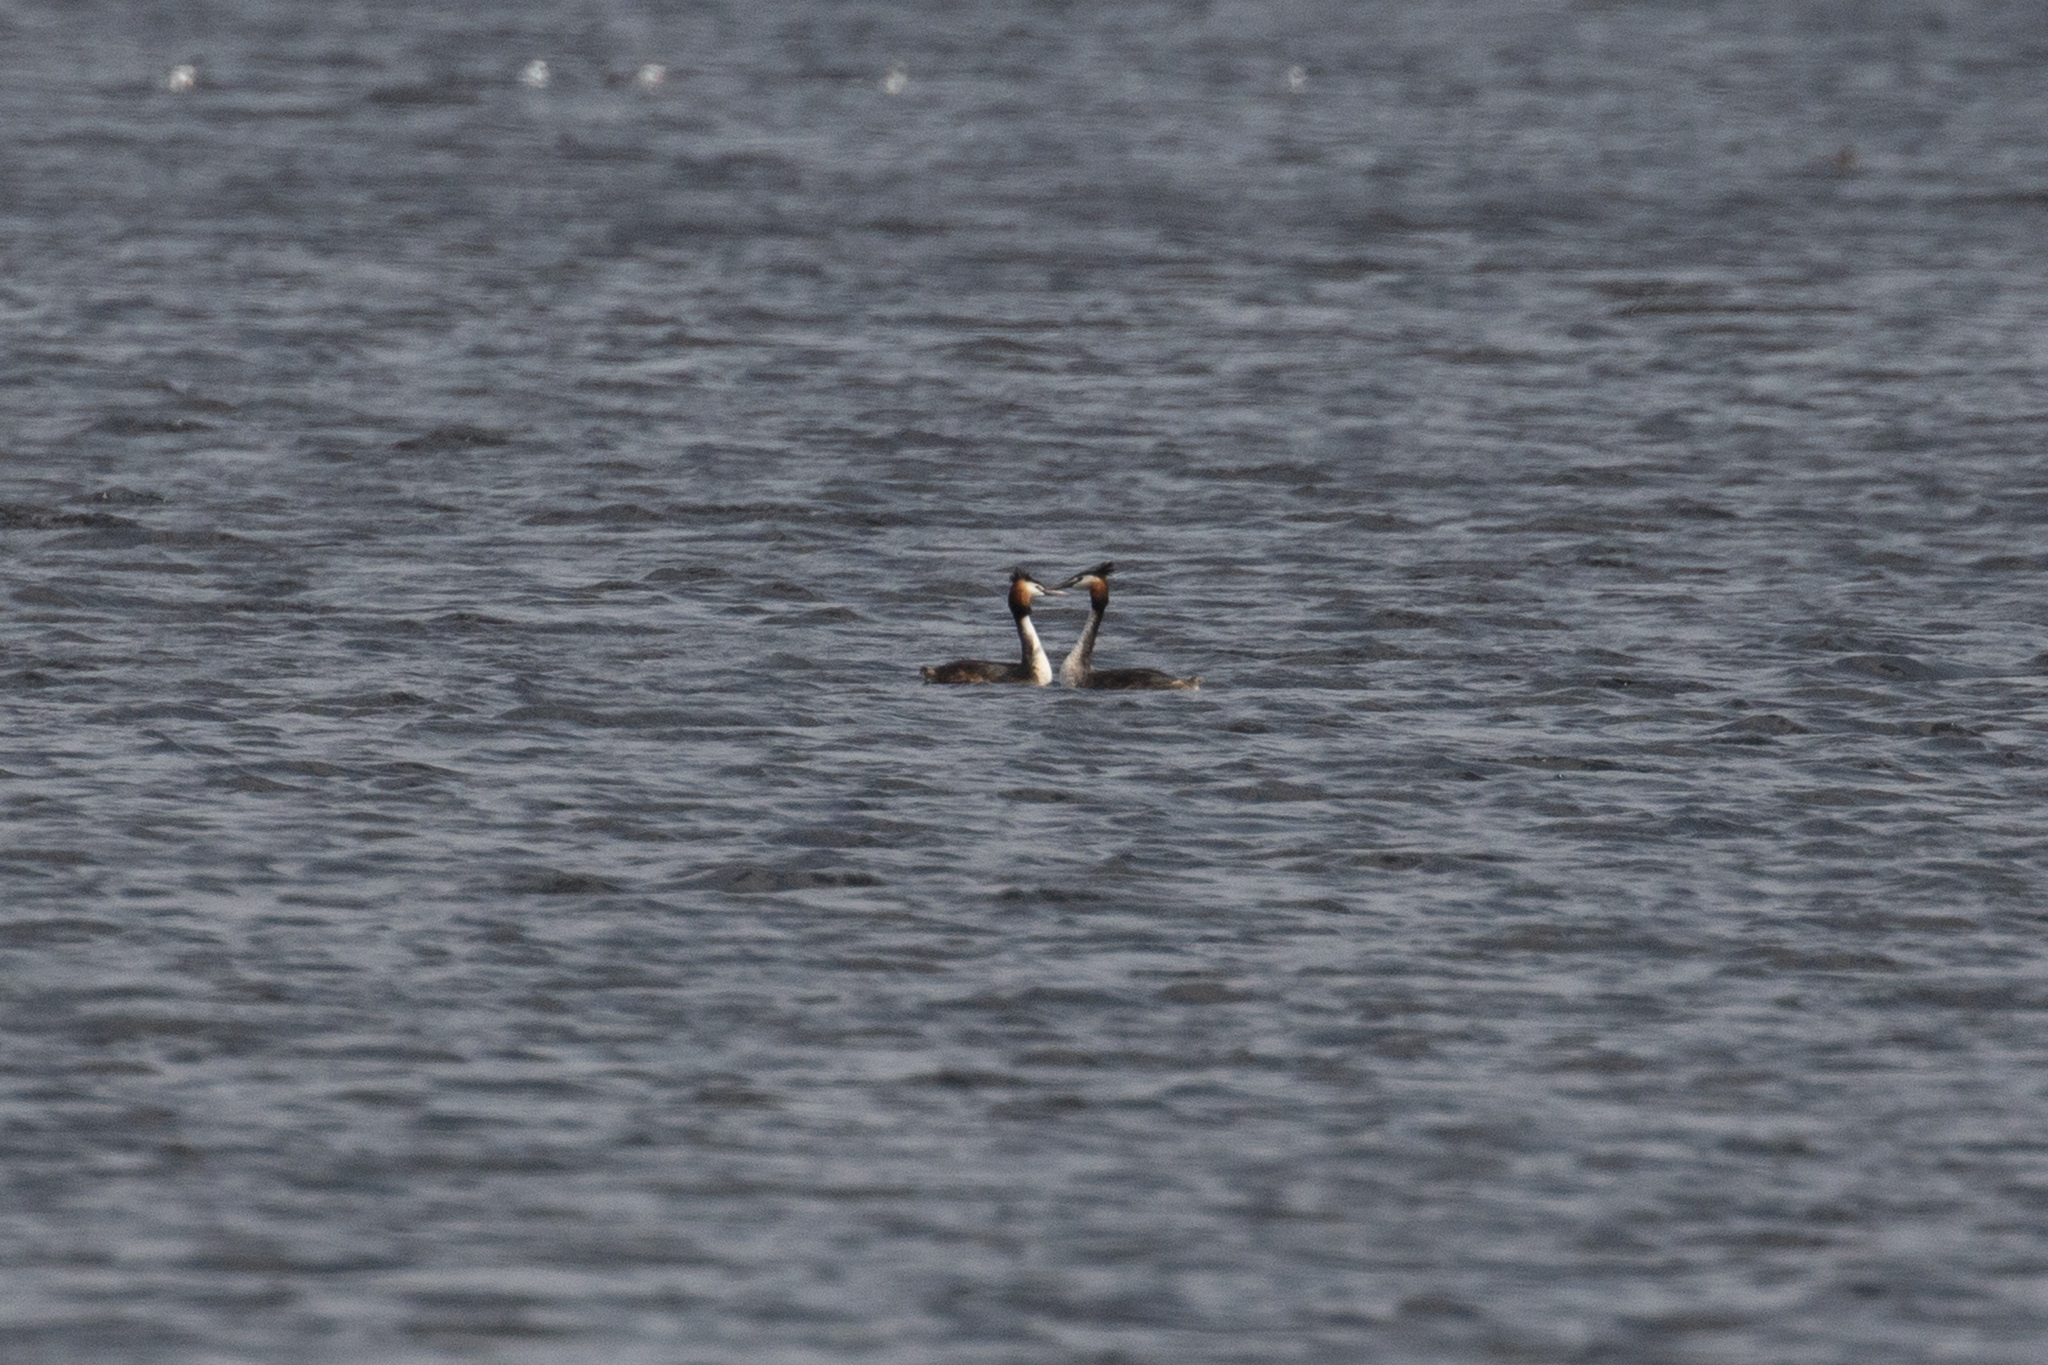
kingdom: Animalia
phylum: Chordata
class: Aves
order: Podicipediformes
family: Podicipedidae
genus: Podiceps
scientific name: Podiceps cristatus
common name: Great crested grebe
